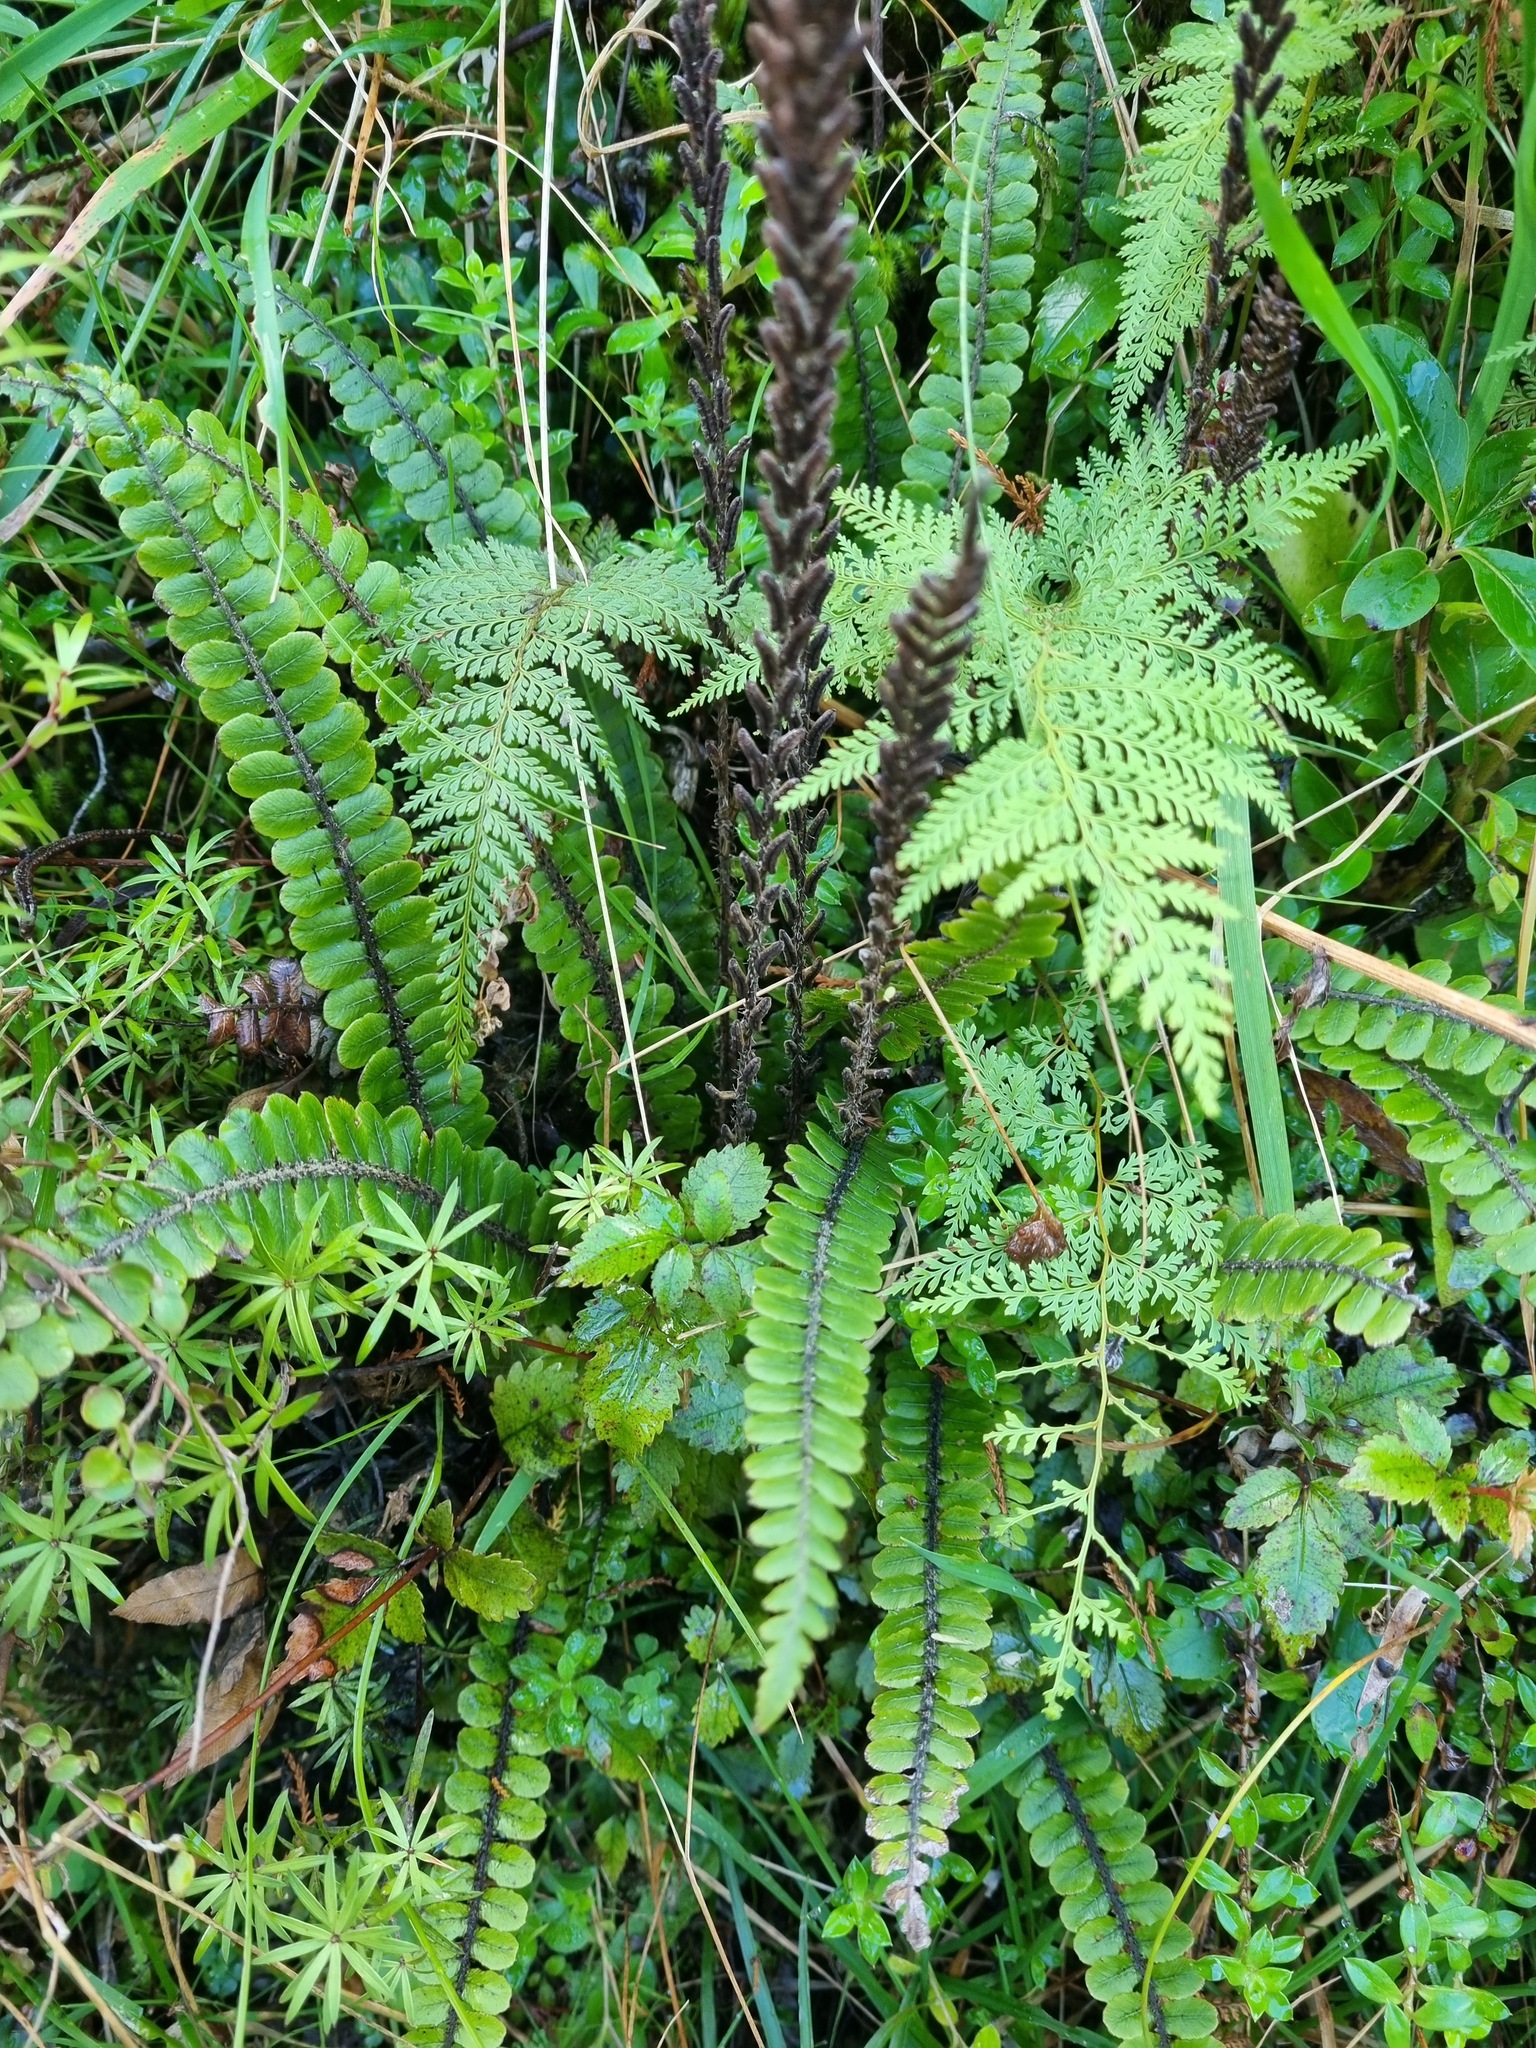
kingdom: Plantae
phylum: Tracheophyta
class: Polypodiopsida
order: Polypodiales
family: Blechnaceae
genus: Cranfillia
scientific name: Cranfillia fluviatilis
